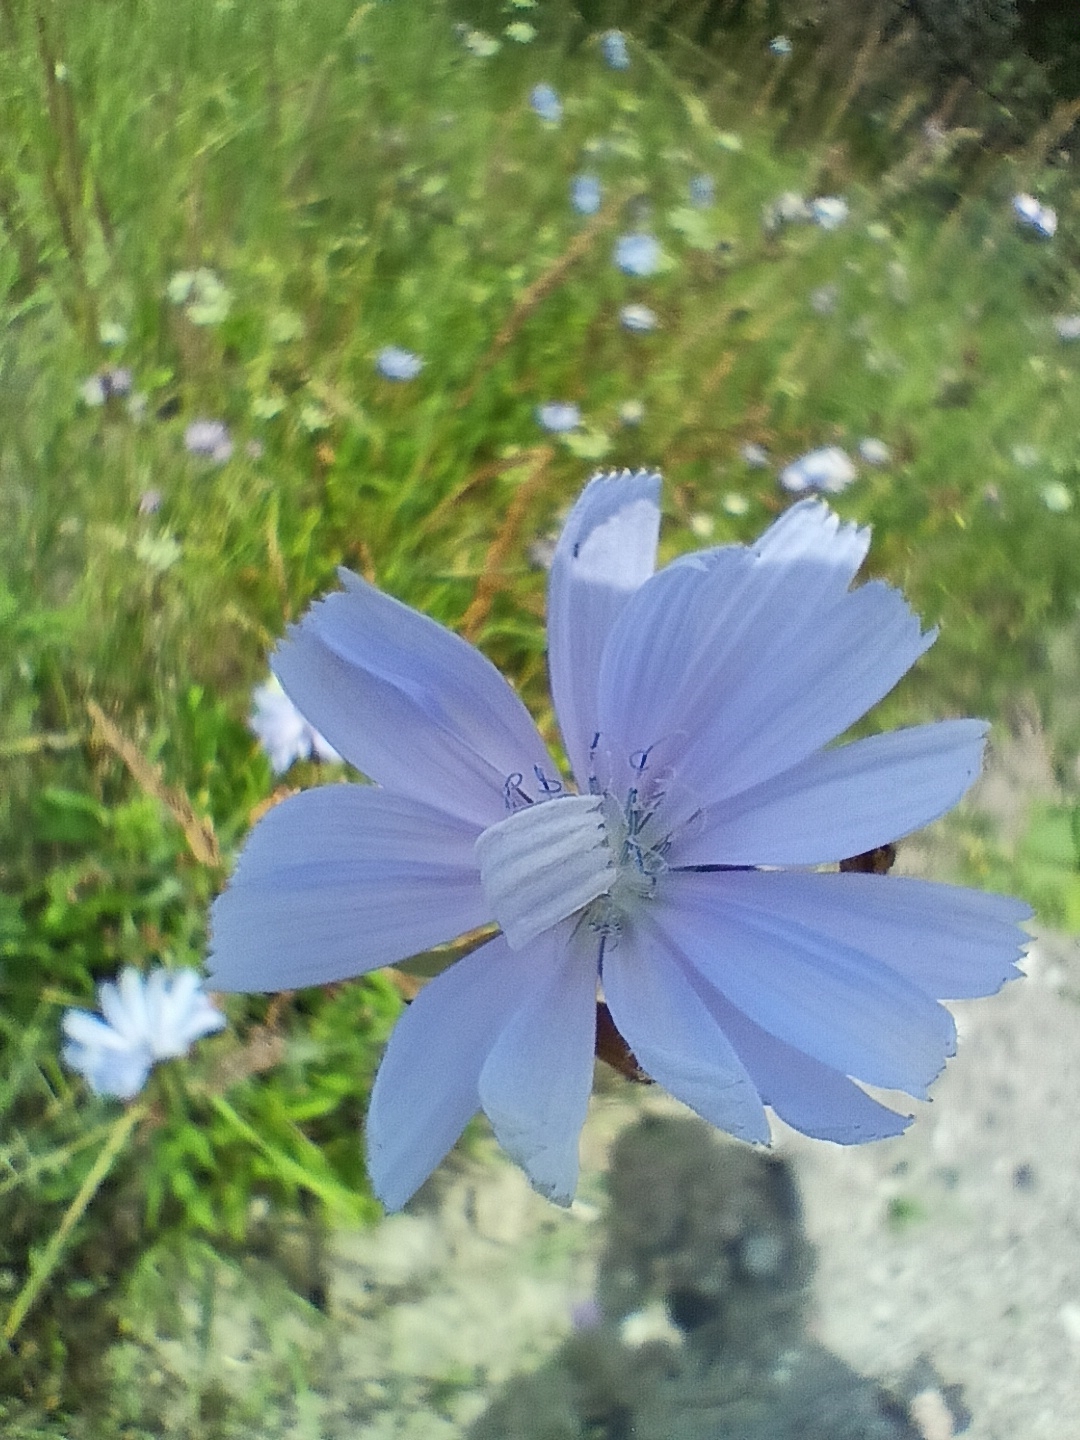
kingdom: Plantae
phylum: Tracheophyta
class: Magnoliopsida
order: Asterales
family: Asteraceae
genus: Cichorium
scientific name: Cichorium intybus
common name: Chicory
